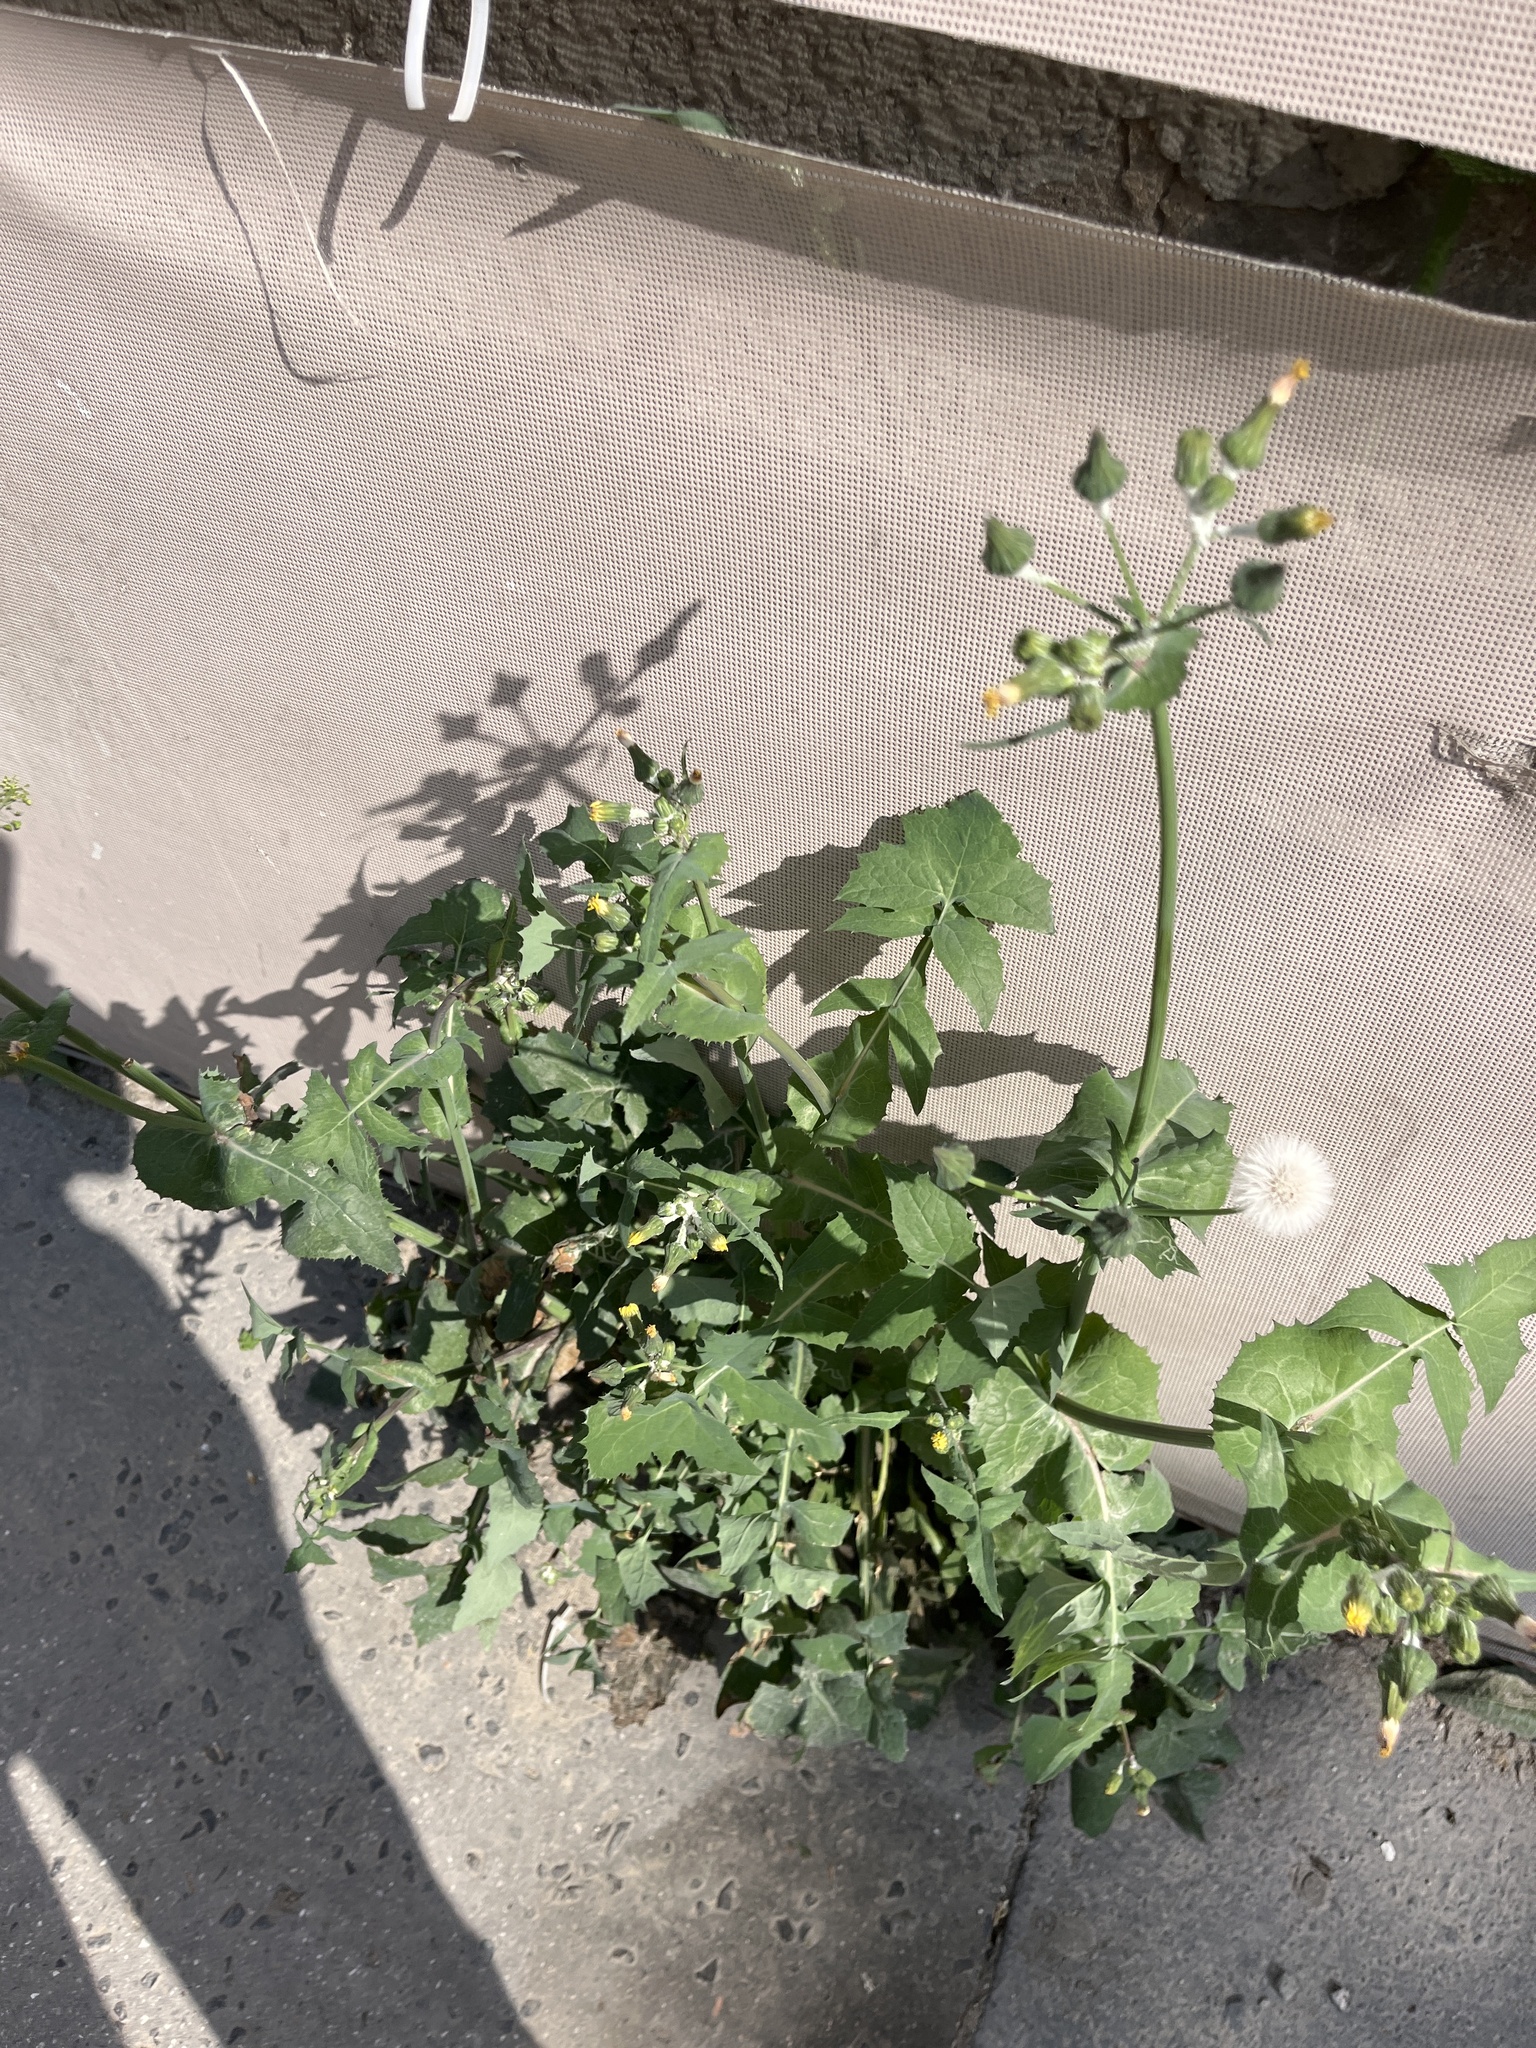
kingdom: Plantae
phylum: Tracheophyta
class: Magnoliopsida
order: Asterales
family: Asteraceae
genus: Sonchus
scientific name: Sonchus oleraceus
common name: Common sowthistle
